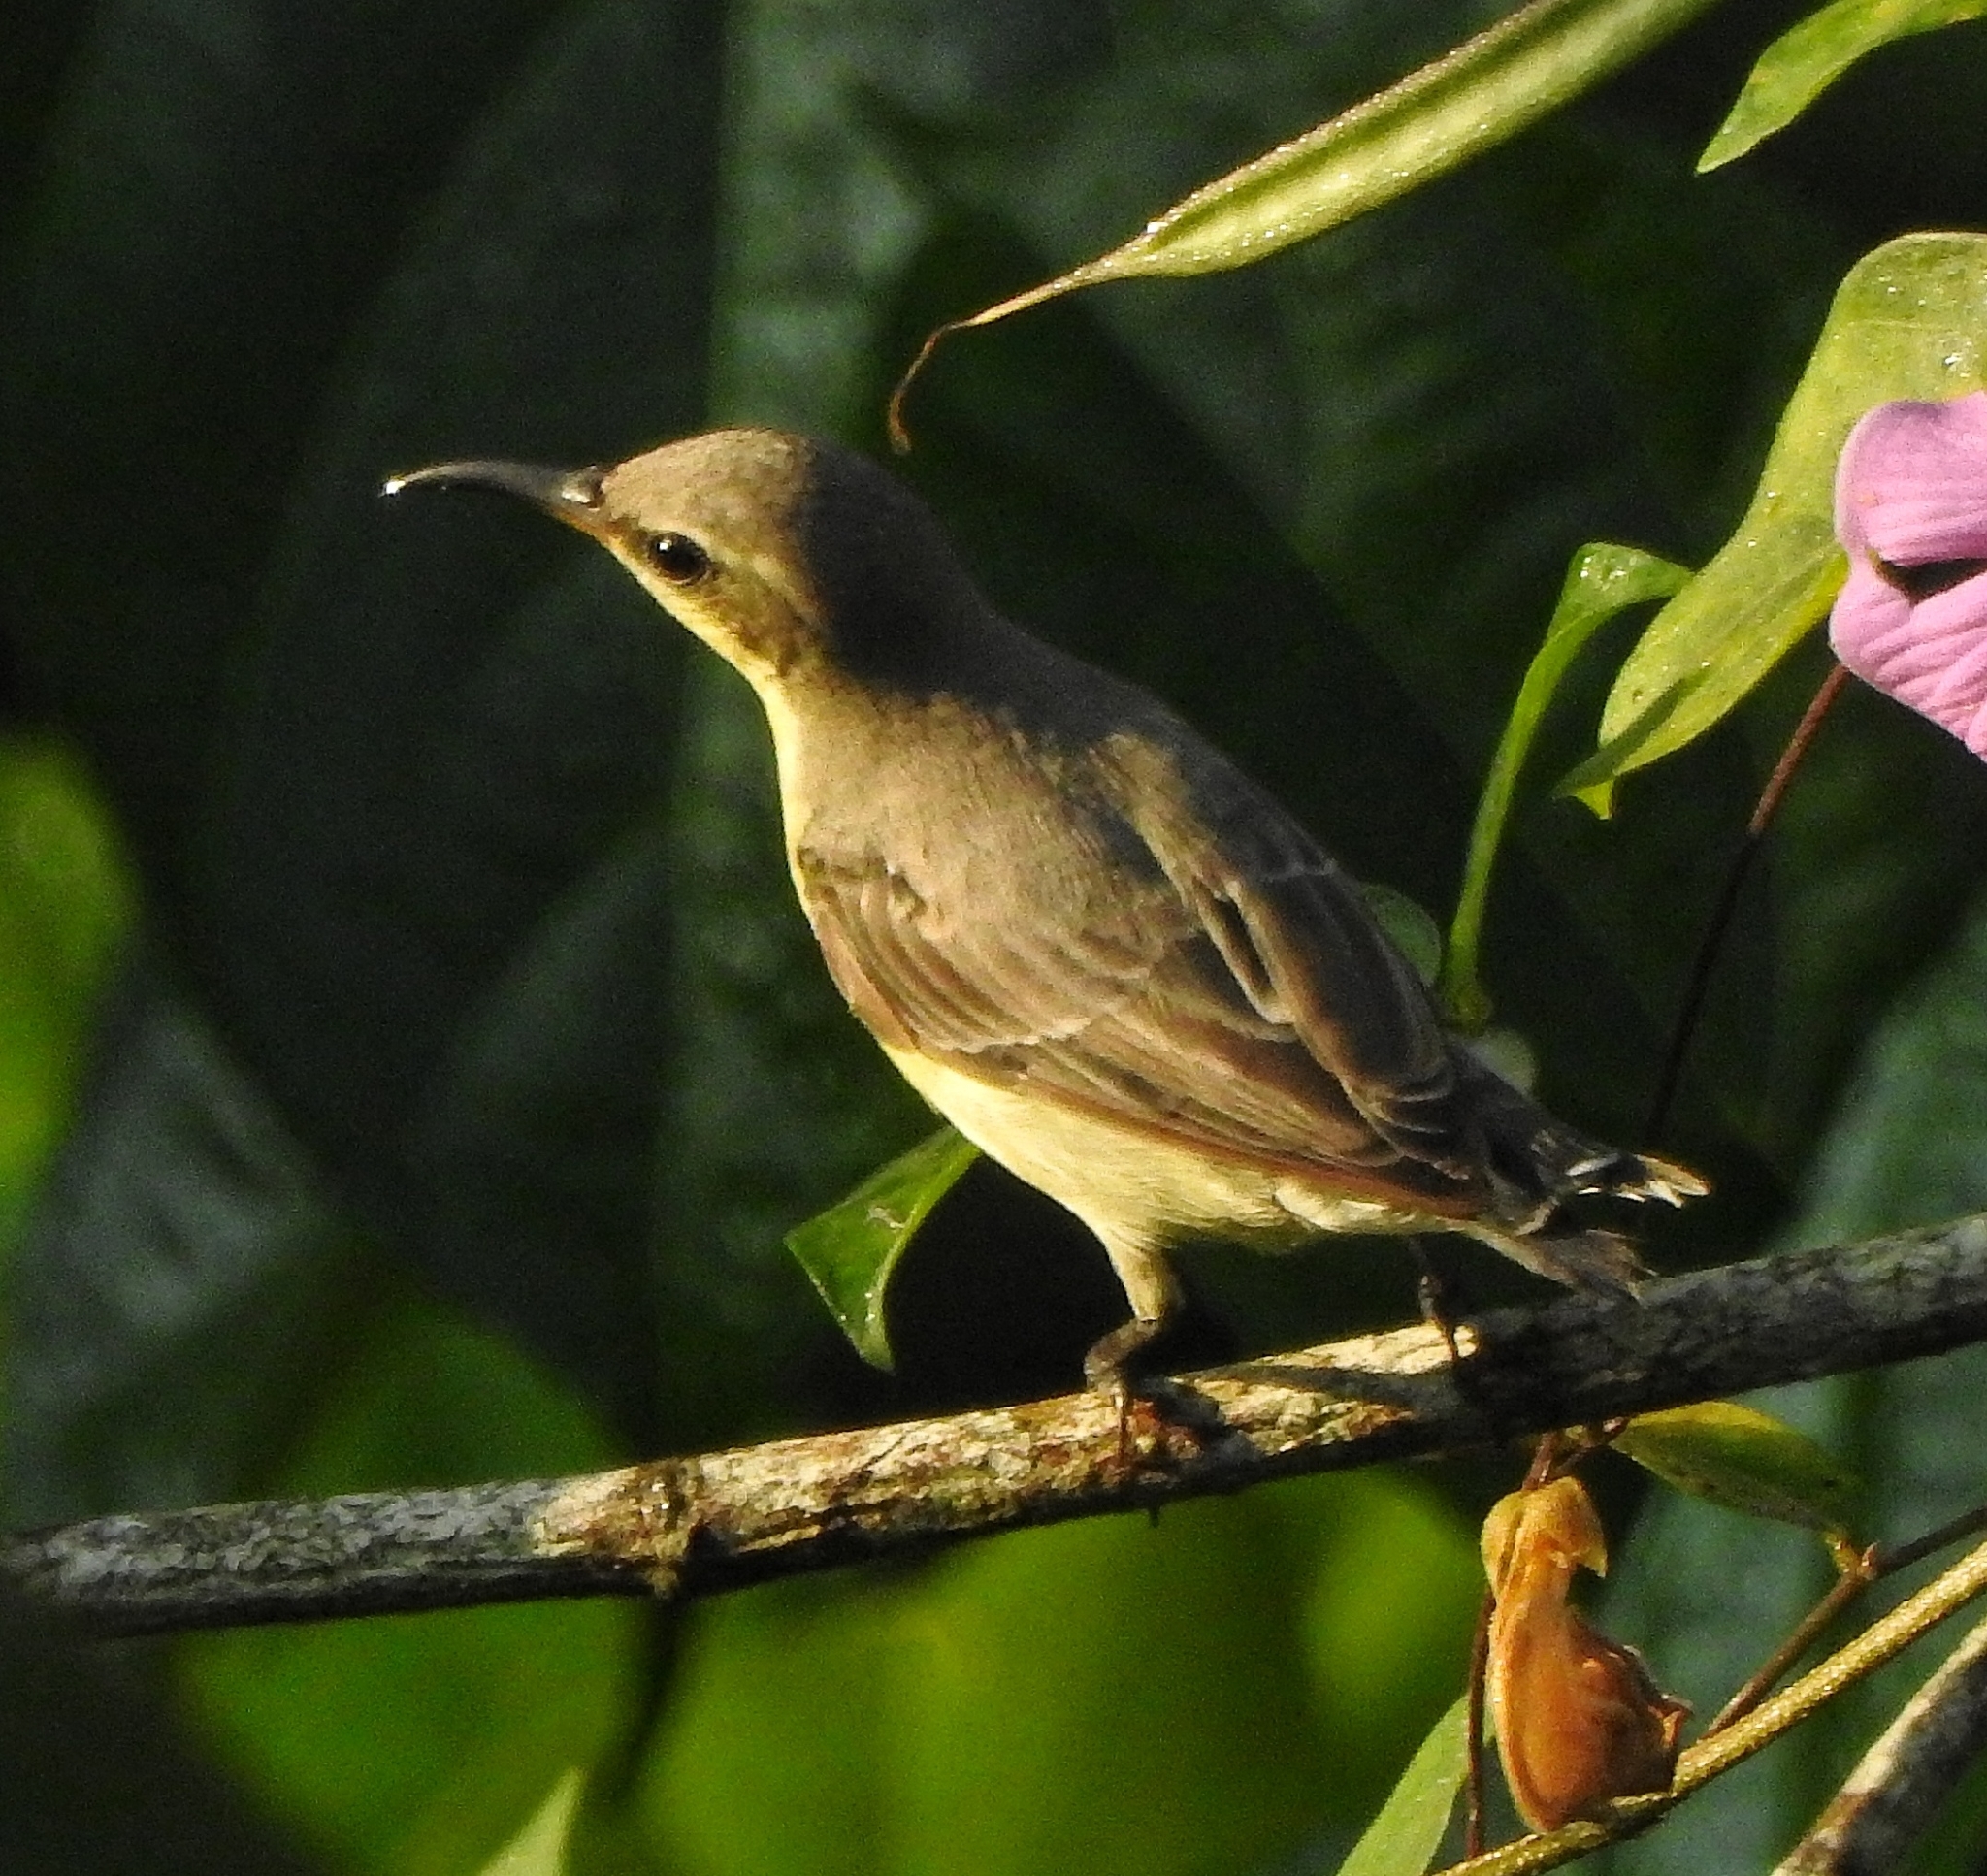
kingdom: Animalia
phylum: Chordata
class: Aves
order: Passeriformes
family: Nectariniidae
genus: Cinnyris
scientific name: Cinnyris asiaticus
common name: Purple sunbird
